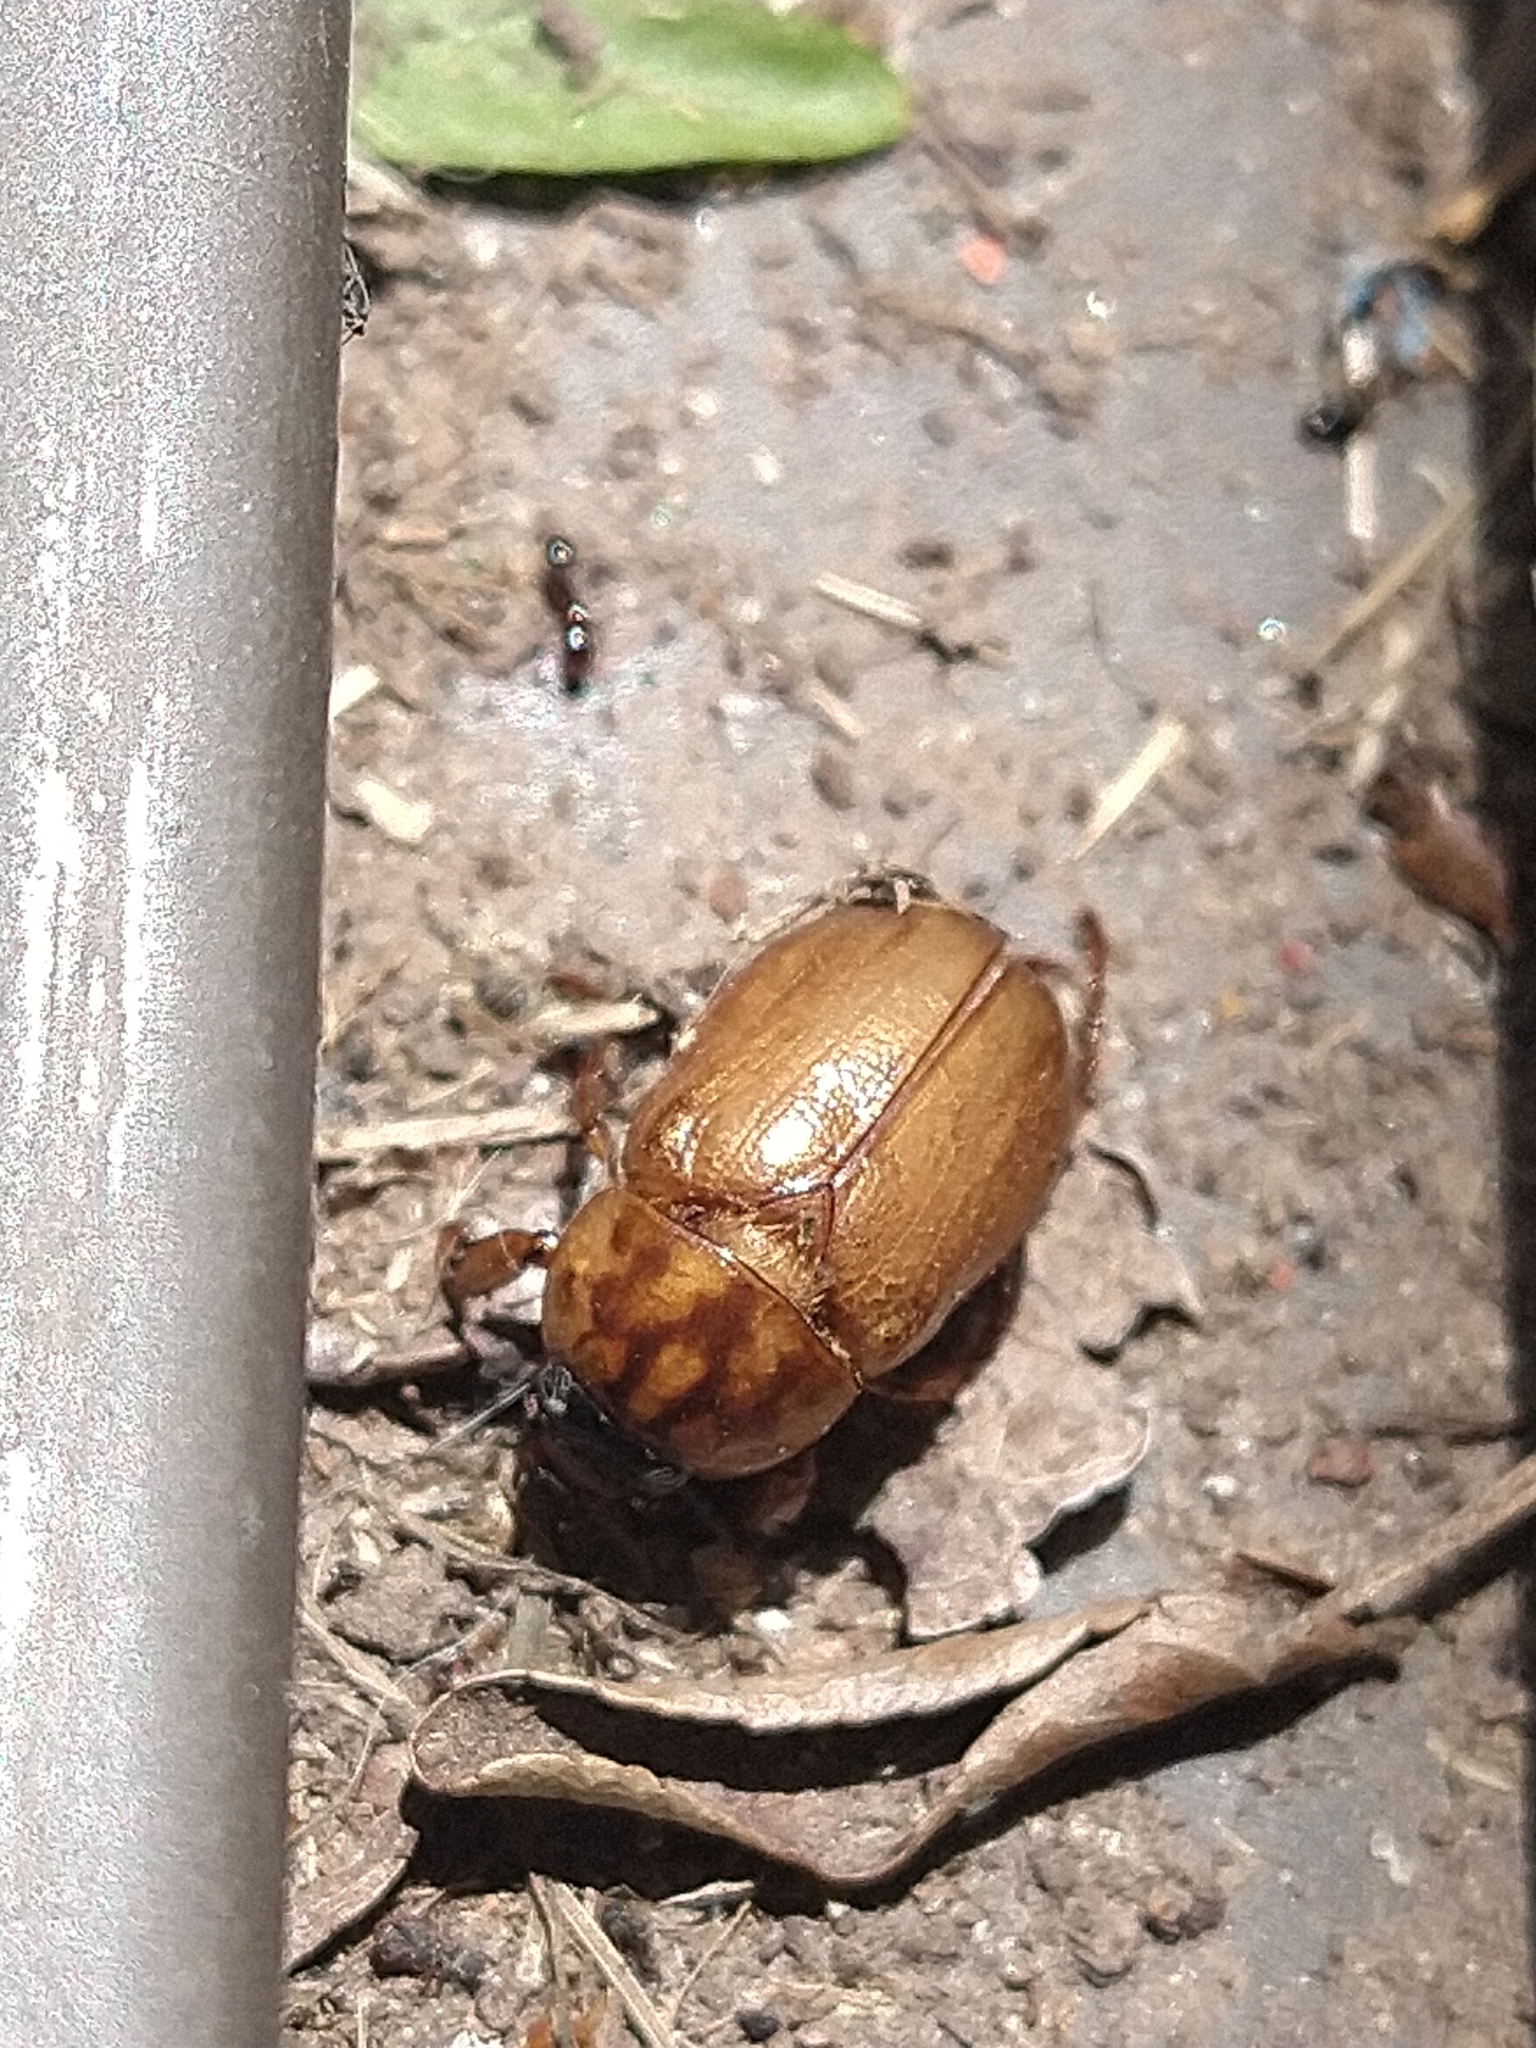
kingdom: Animalia
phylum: Arthropoda
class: Insecta
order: Coleoptera
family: Scarabaeidae
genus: Cyclocephala
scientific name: Cyclocephala
